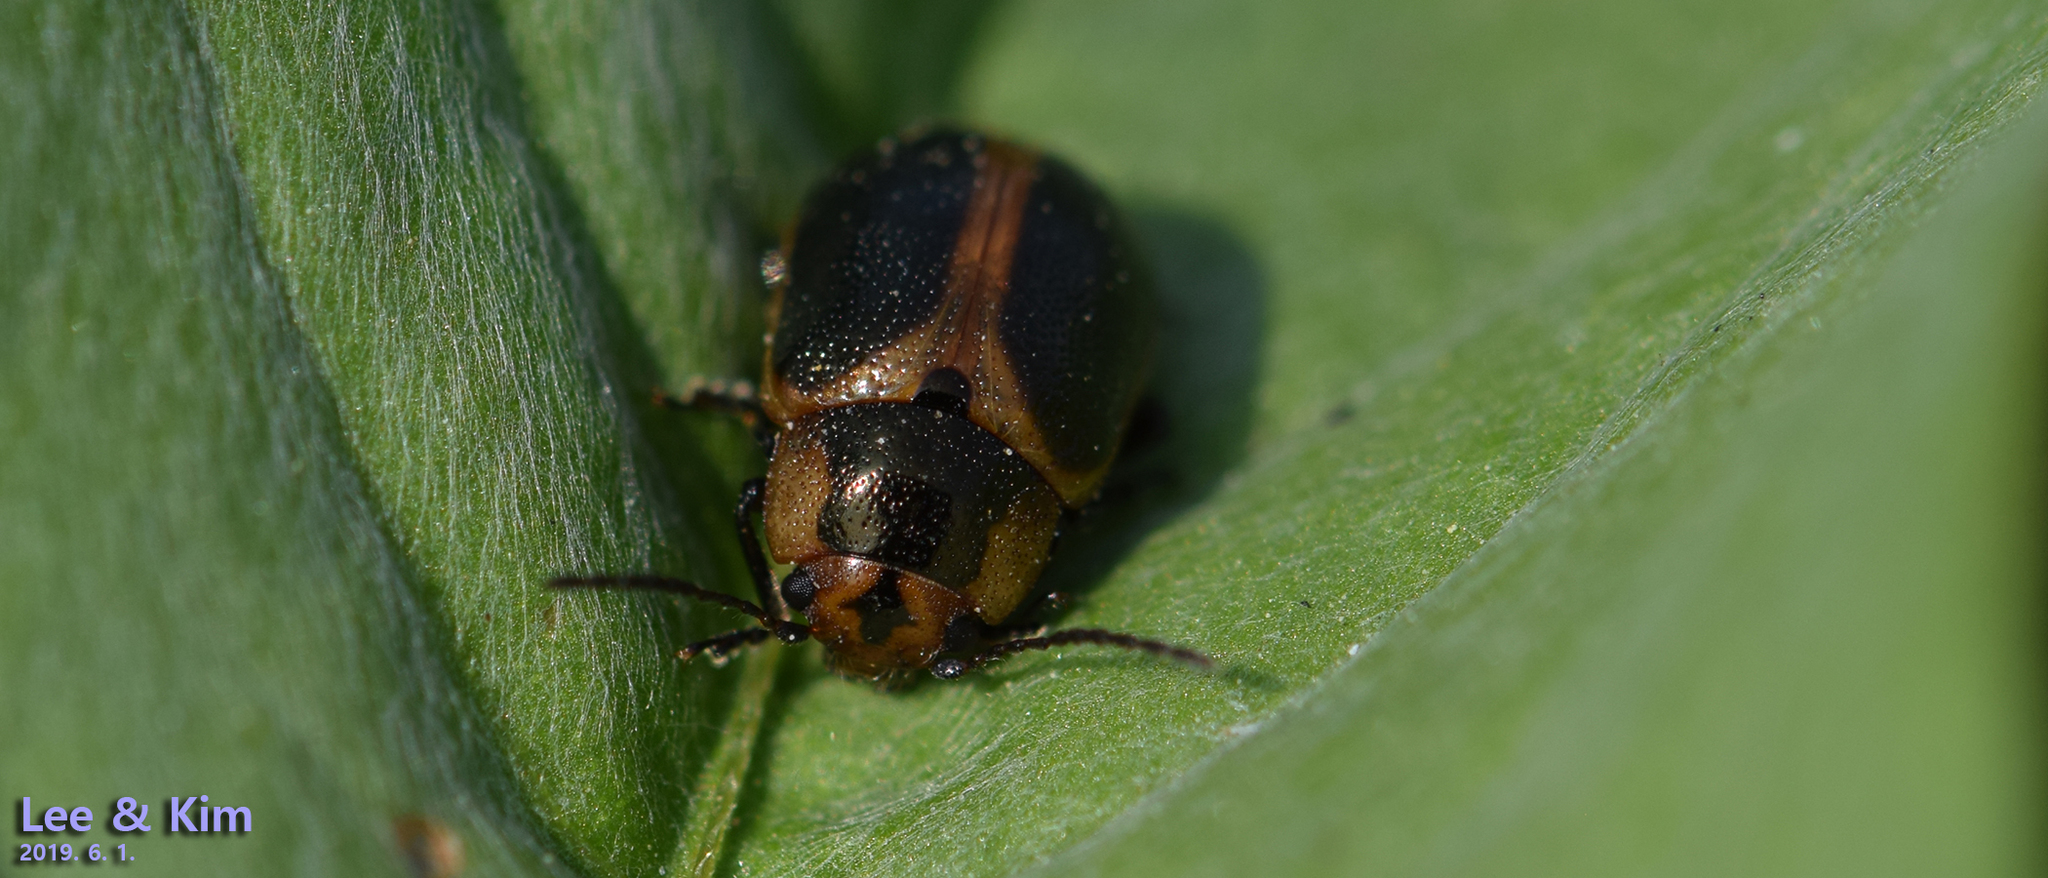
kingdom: Animalia
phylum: Arthropoda
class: Insecta
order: Coleoptera
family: Chrysomelidae
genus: Entomoscelis
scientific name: Entomoscelis
